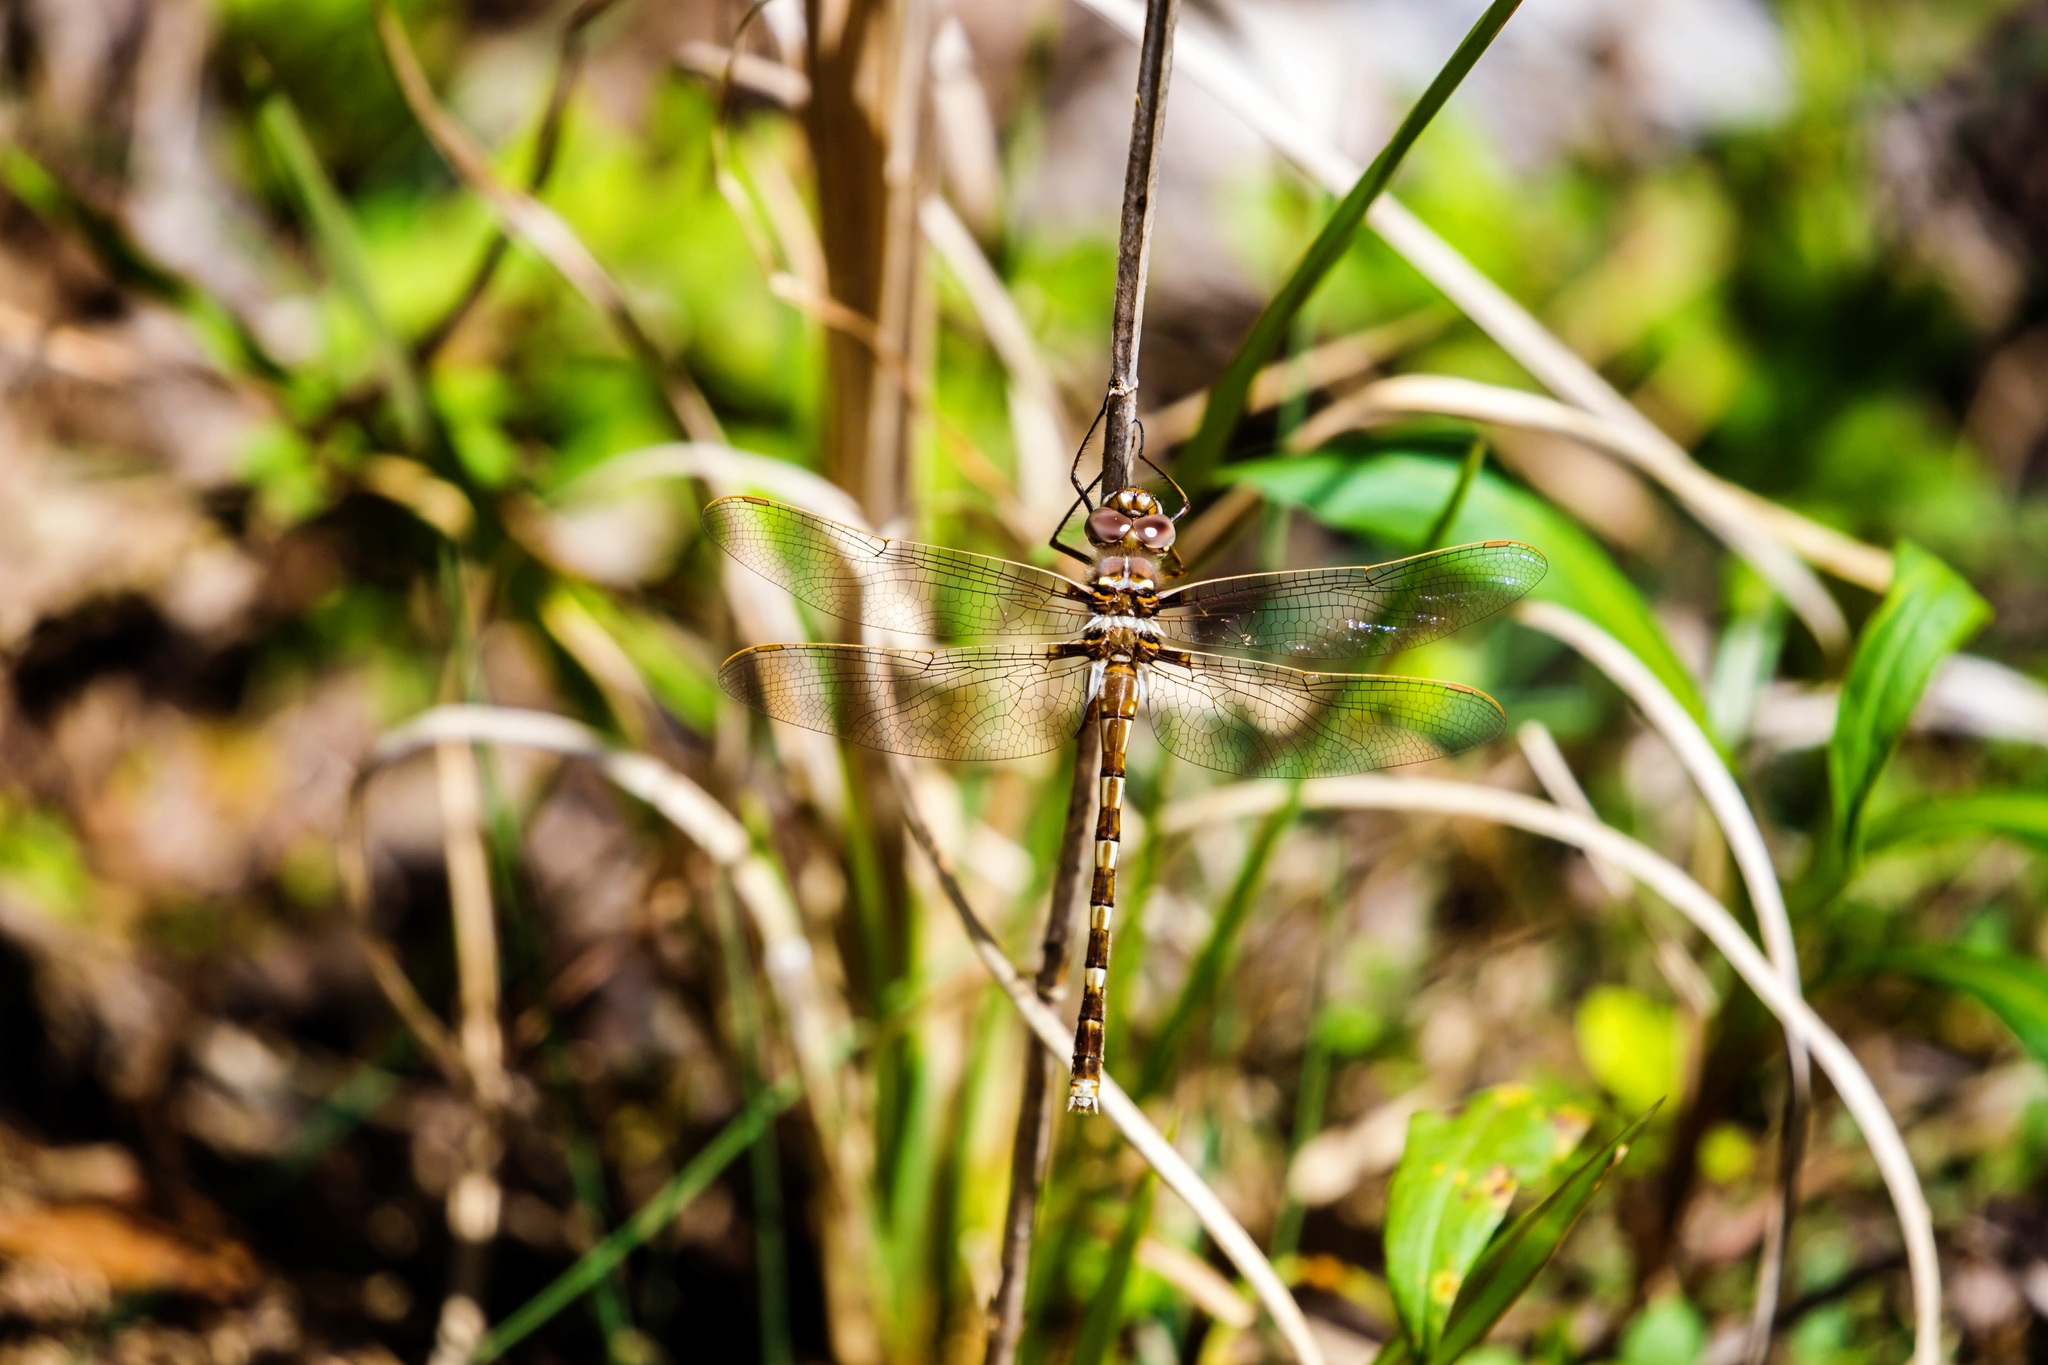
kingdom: Animalia
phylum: Arthropoda
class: Insecta
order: Odonata
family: Macromiidae
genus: Didymops
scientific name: Didymops transversa
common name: Stream cruiser
